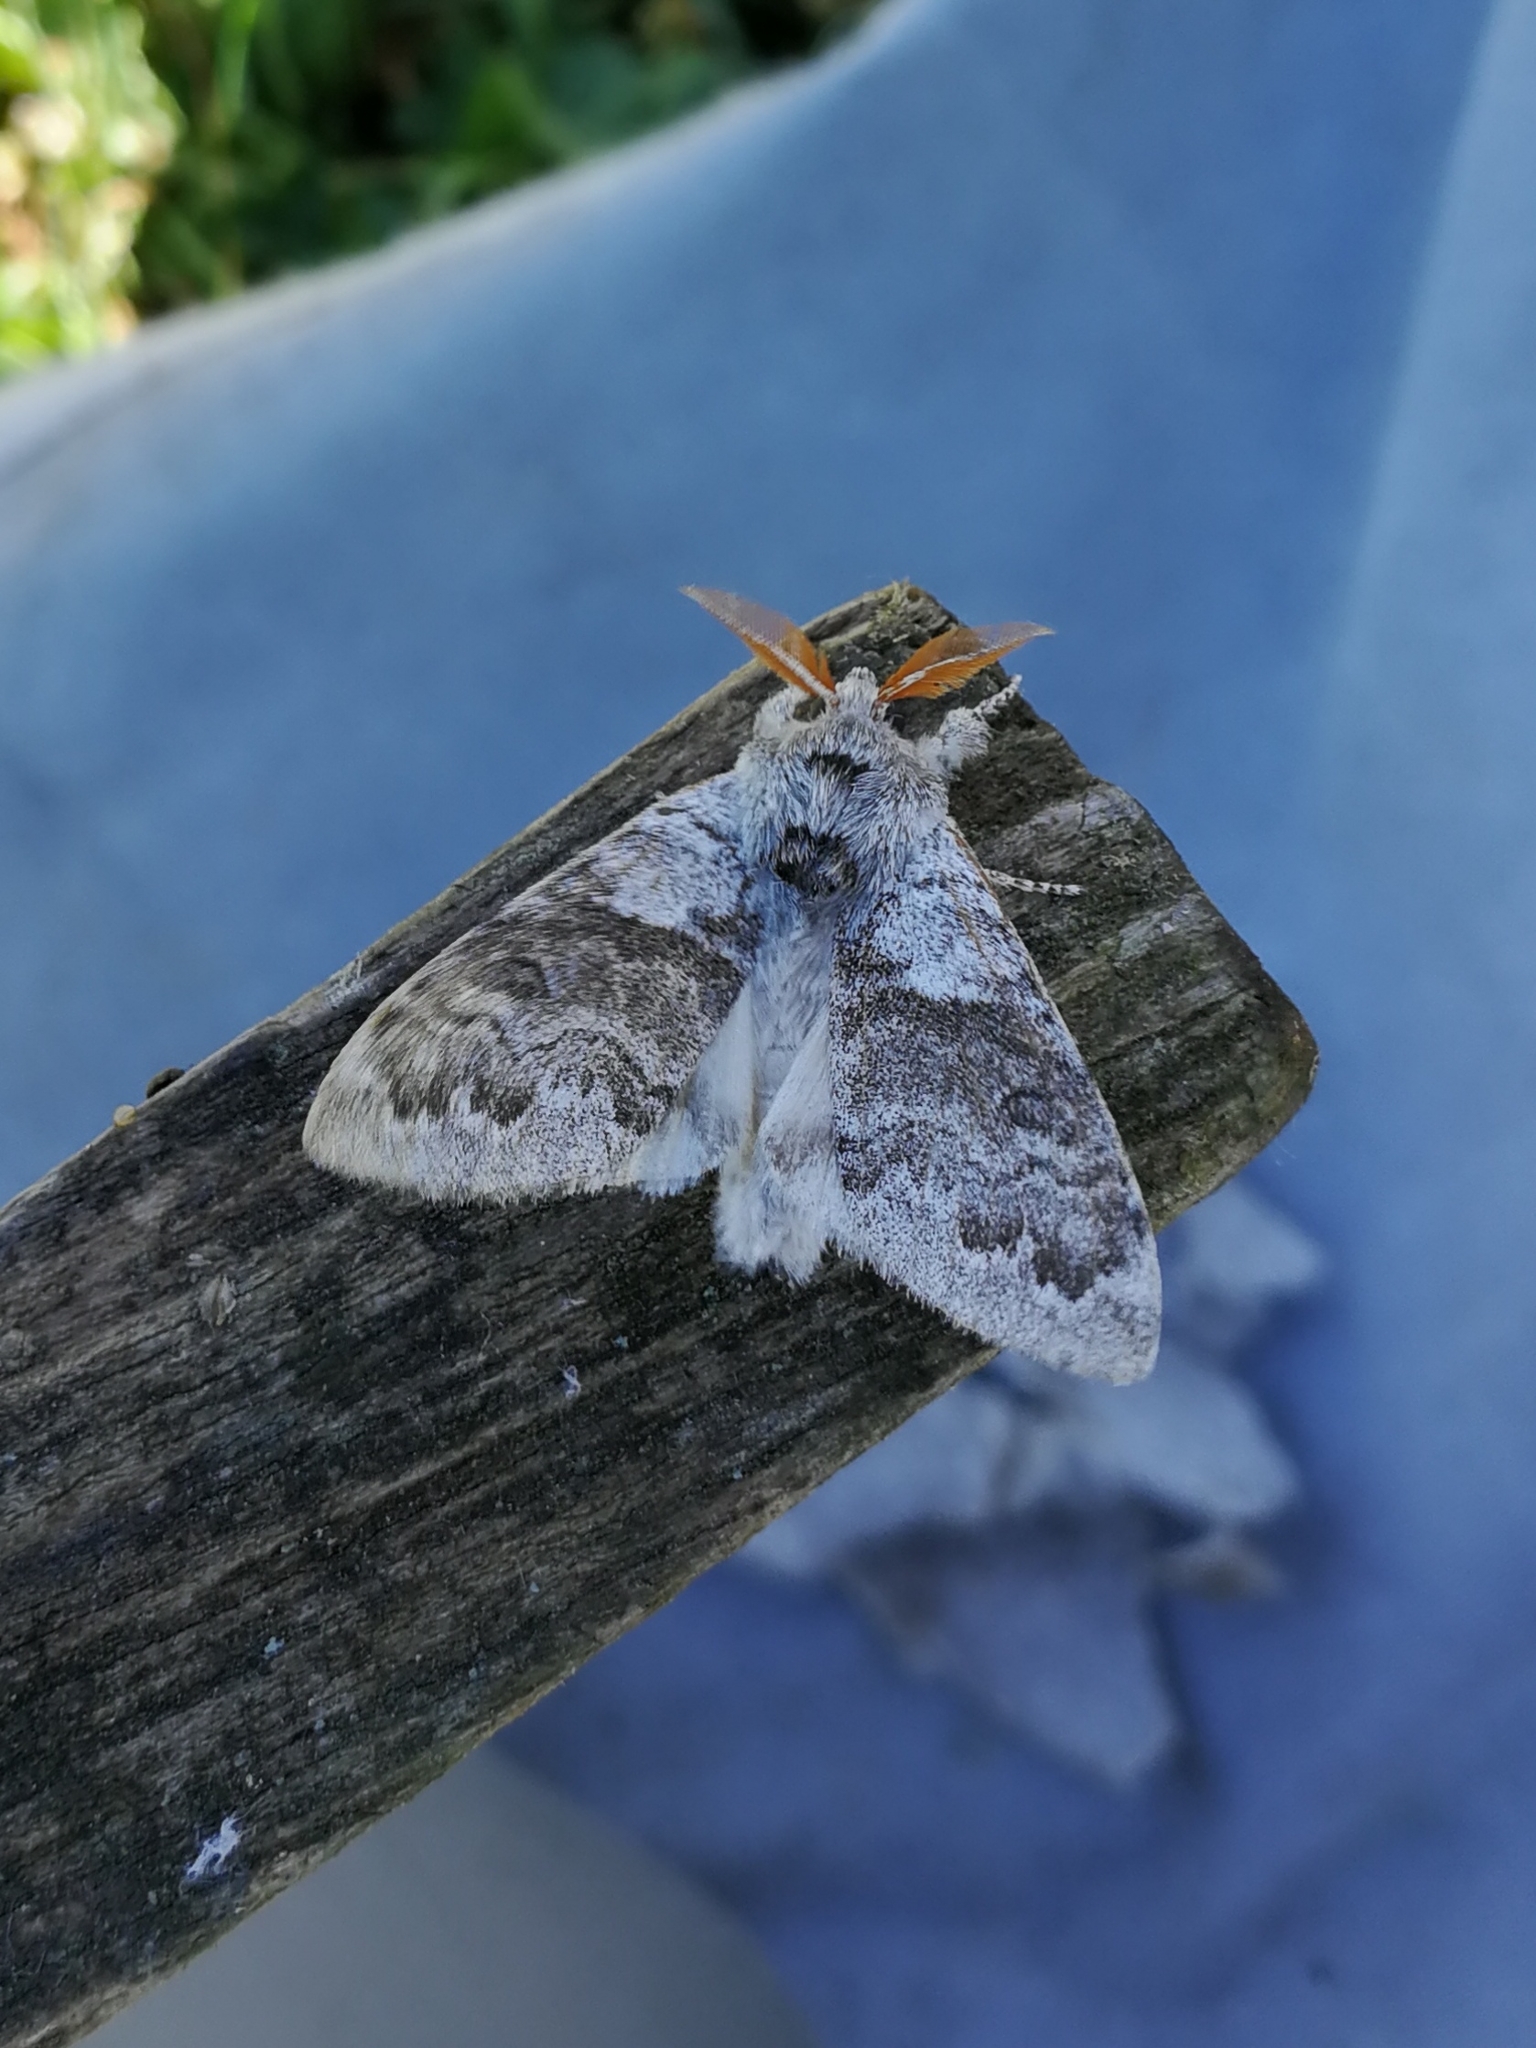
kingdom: Animalia
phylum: Arthropoda
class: Insecta
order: Lepidoptera
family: Erebidae
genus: Calliteara
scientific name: Calliteara pudibunda
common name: Pale tussock
